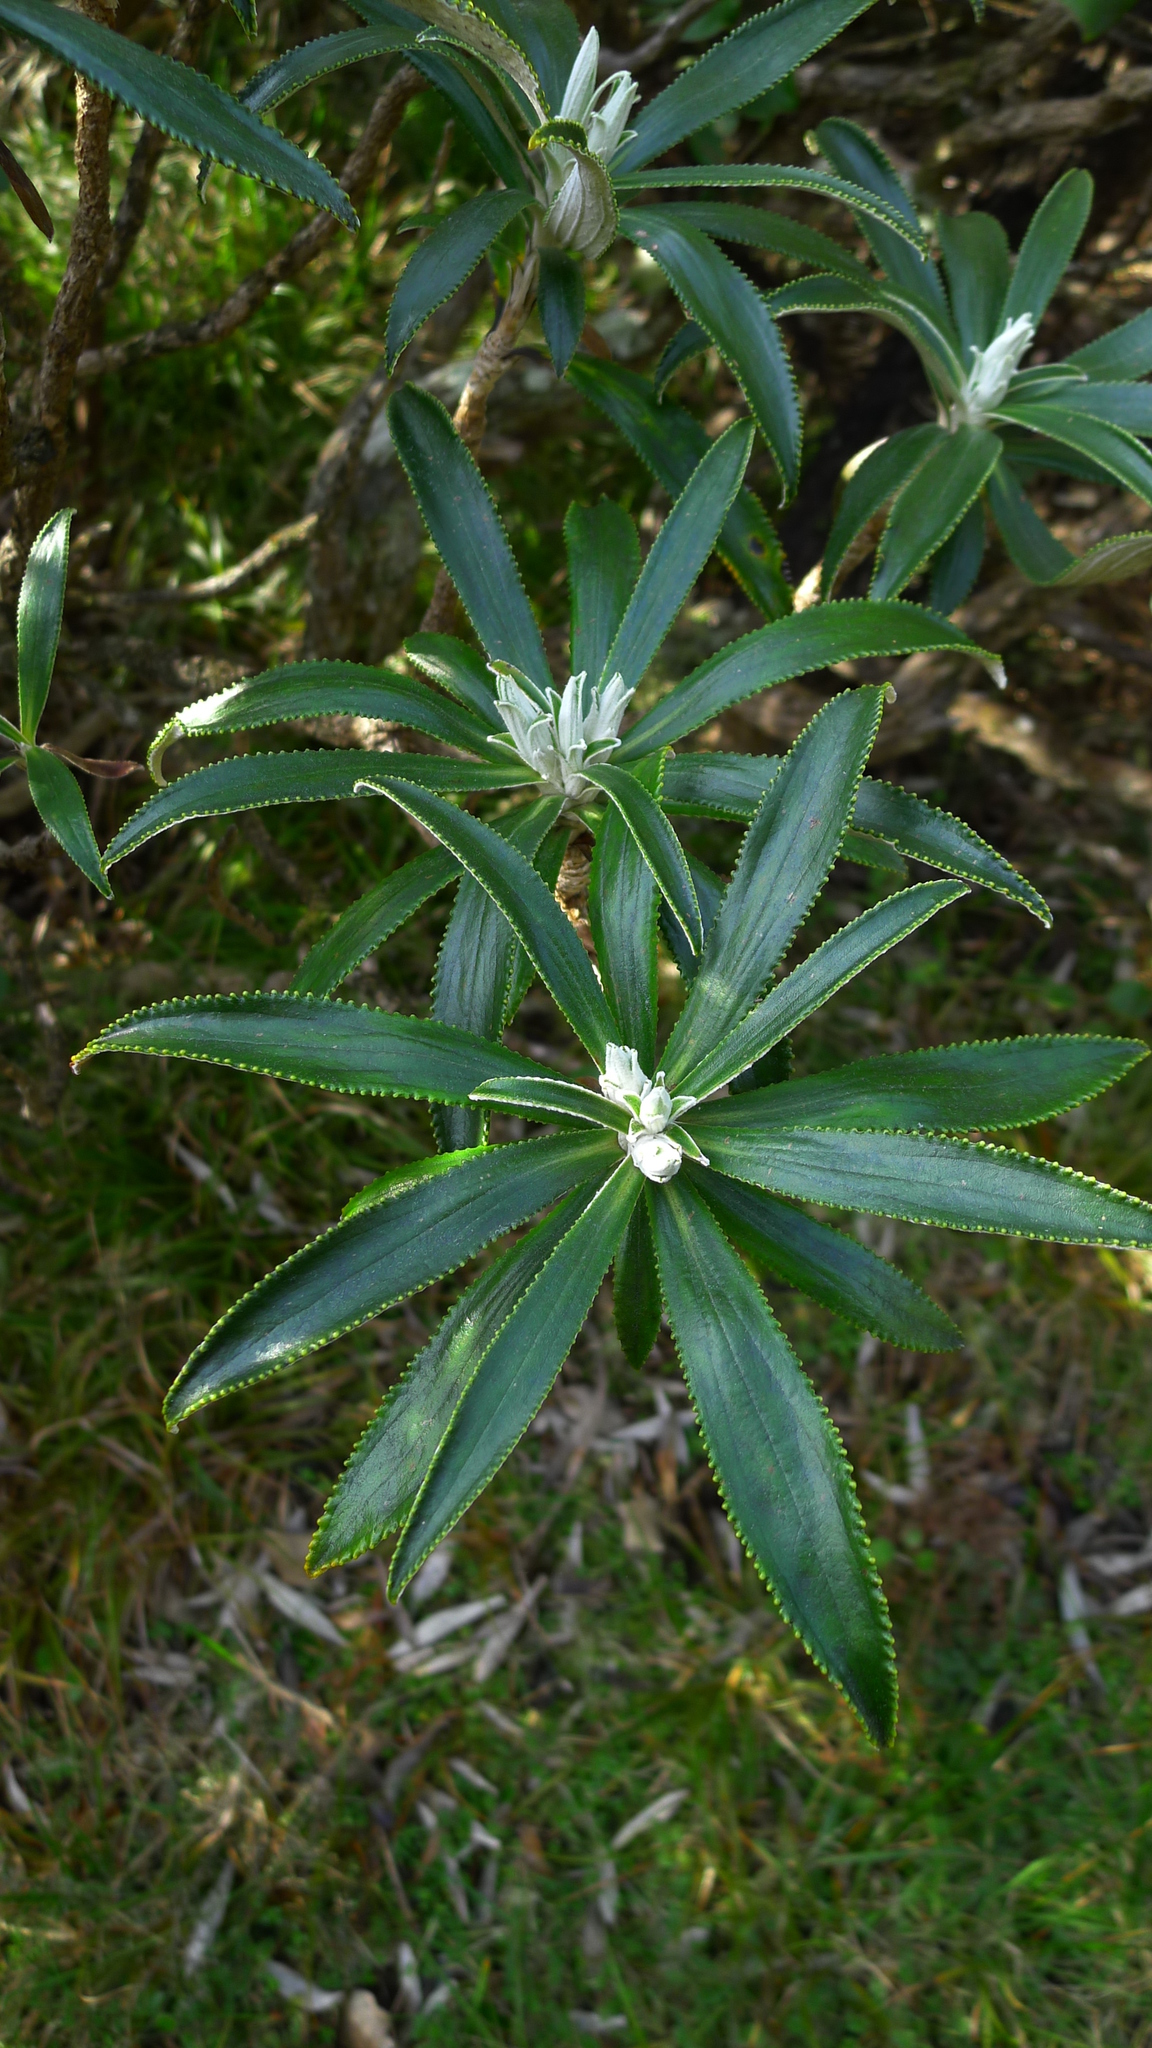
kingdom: Plantae
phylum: Tracheophyta
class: Magnoliopsida
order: Asterales
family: Asteraceae
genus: Macrolearia
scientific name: Macrolearia angustifolia
